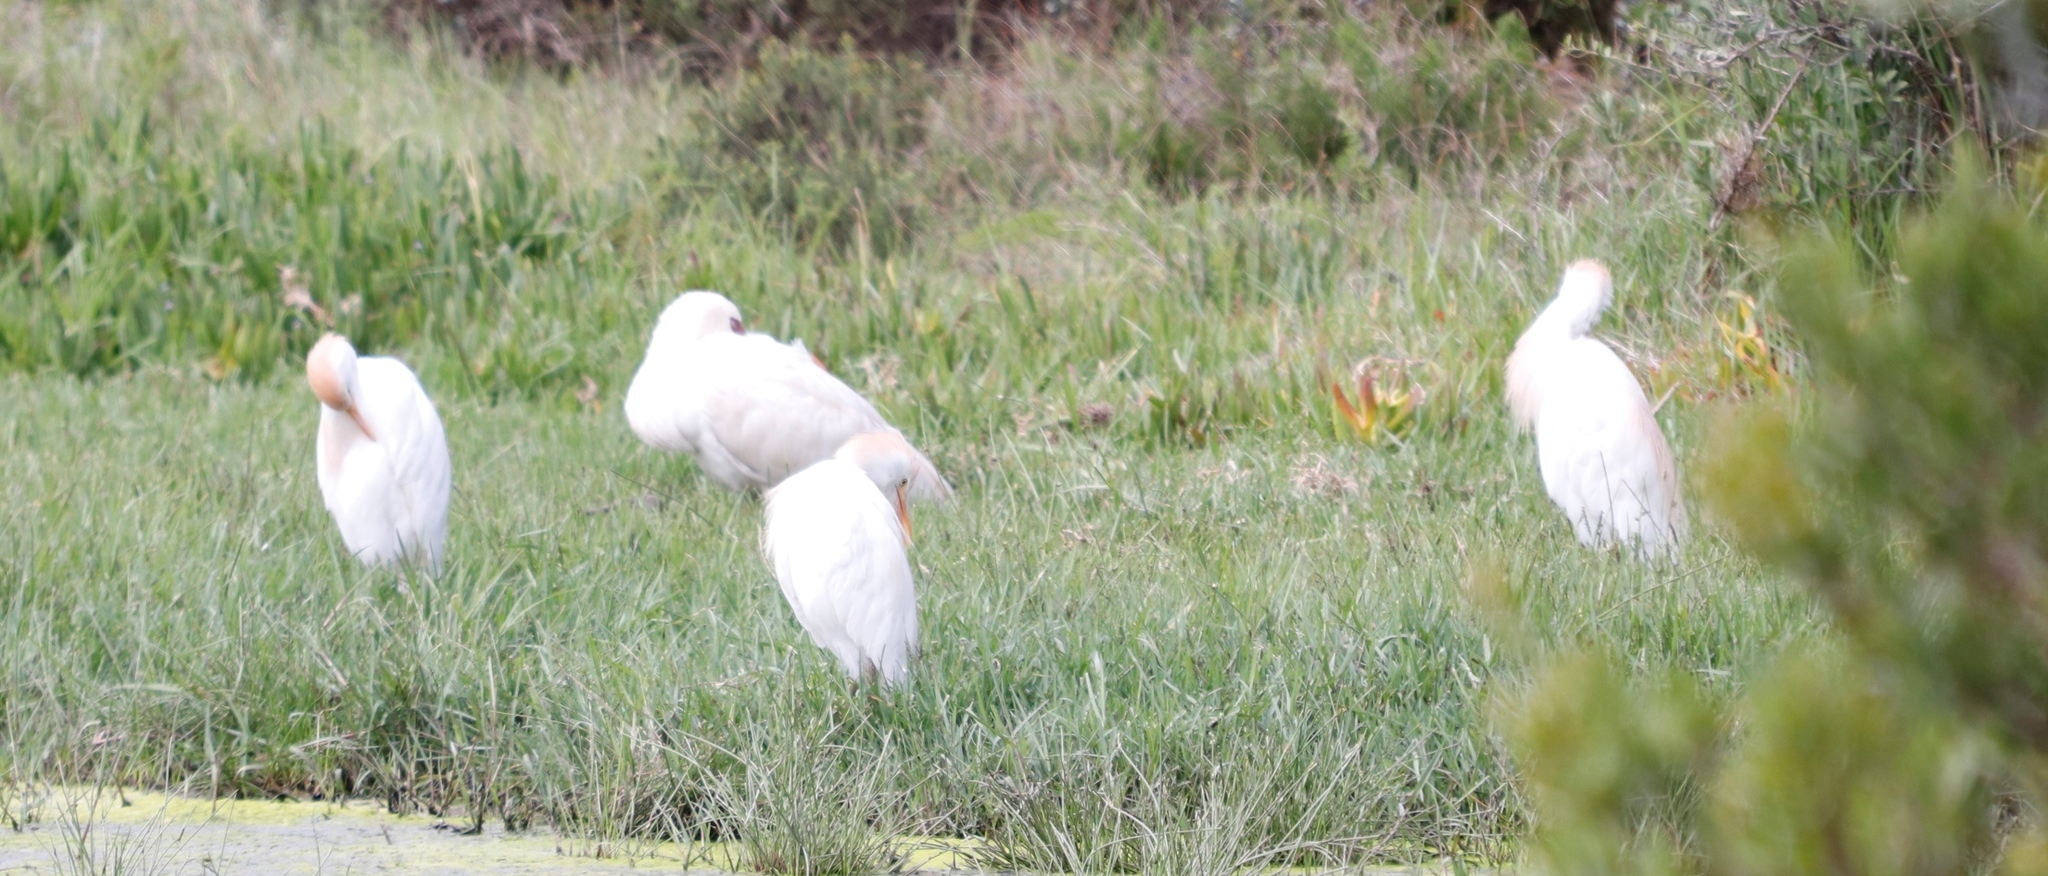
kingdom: Animalia
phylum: Chordata
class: Aves
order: Pelecaniformes
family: Ardeidae
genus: Bubulcus
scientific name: Bubulcus ibis
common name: Cattle egret
